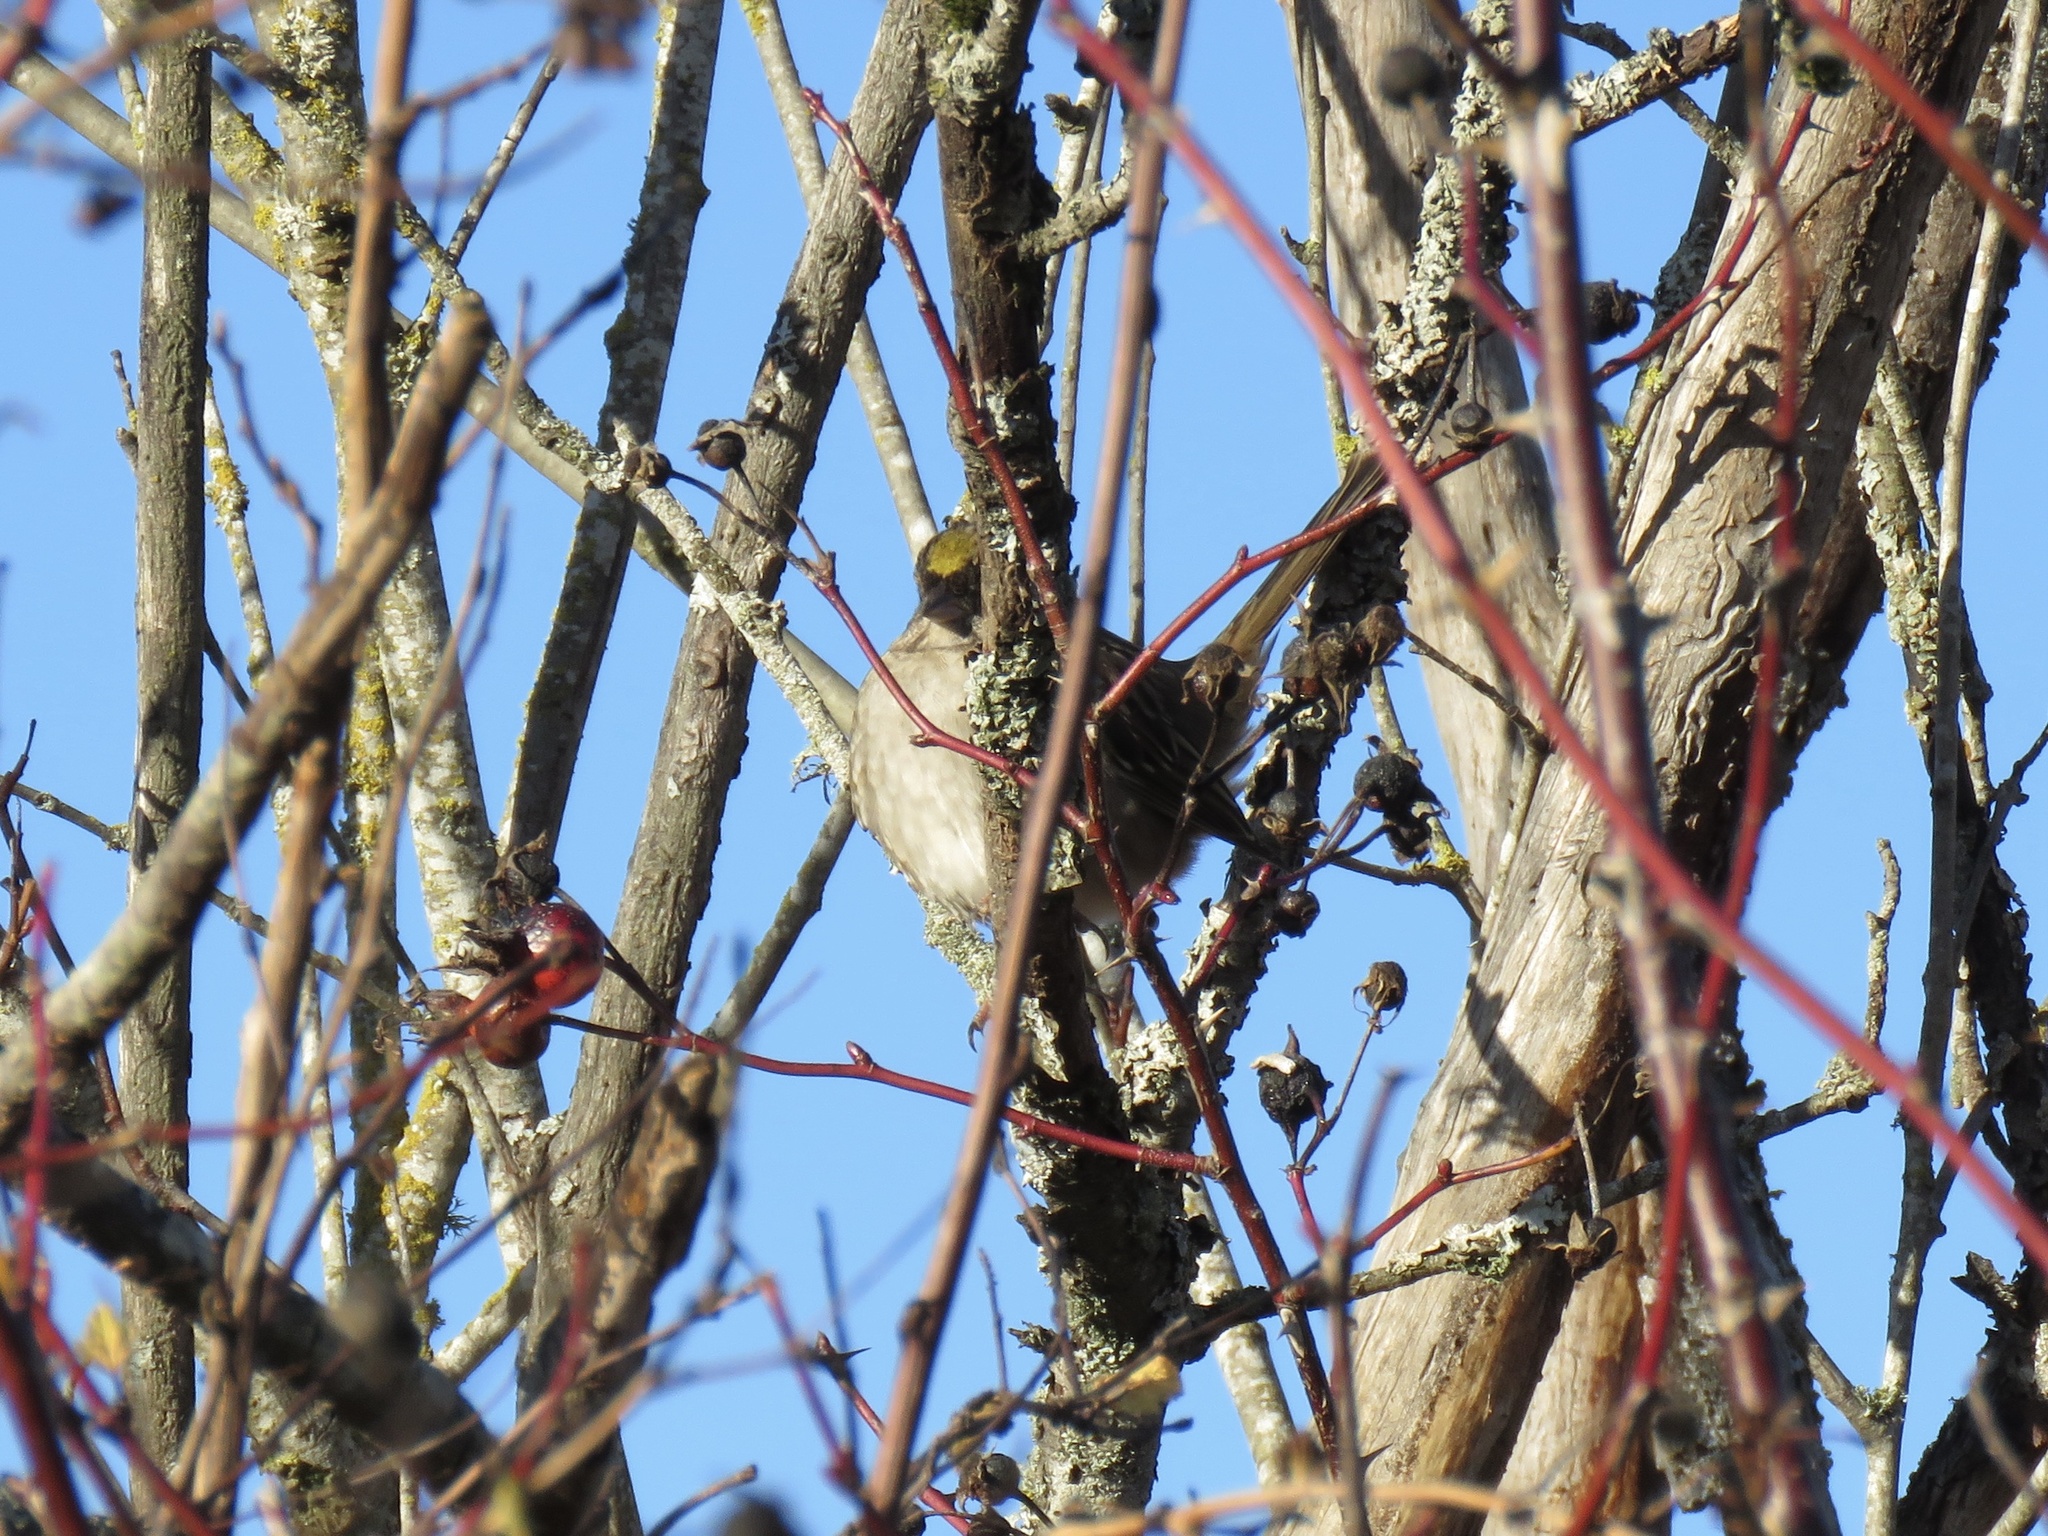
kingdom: Animalia
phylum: Chordata
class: Aves
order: Passeriformes
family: Passerellidae
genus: Zonotrichia
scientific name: Zonotrichia atricapilla
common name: Golden-crowned sparrow
